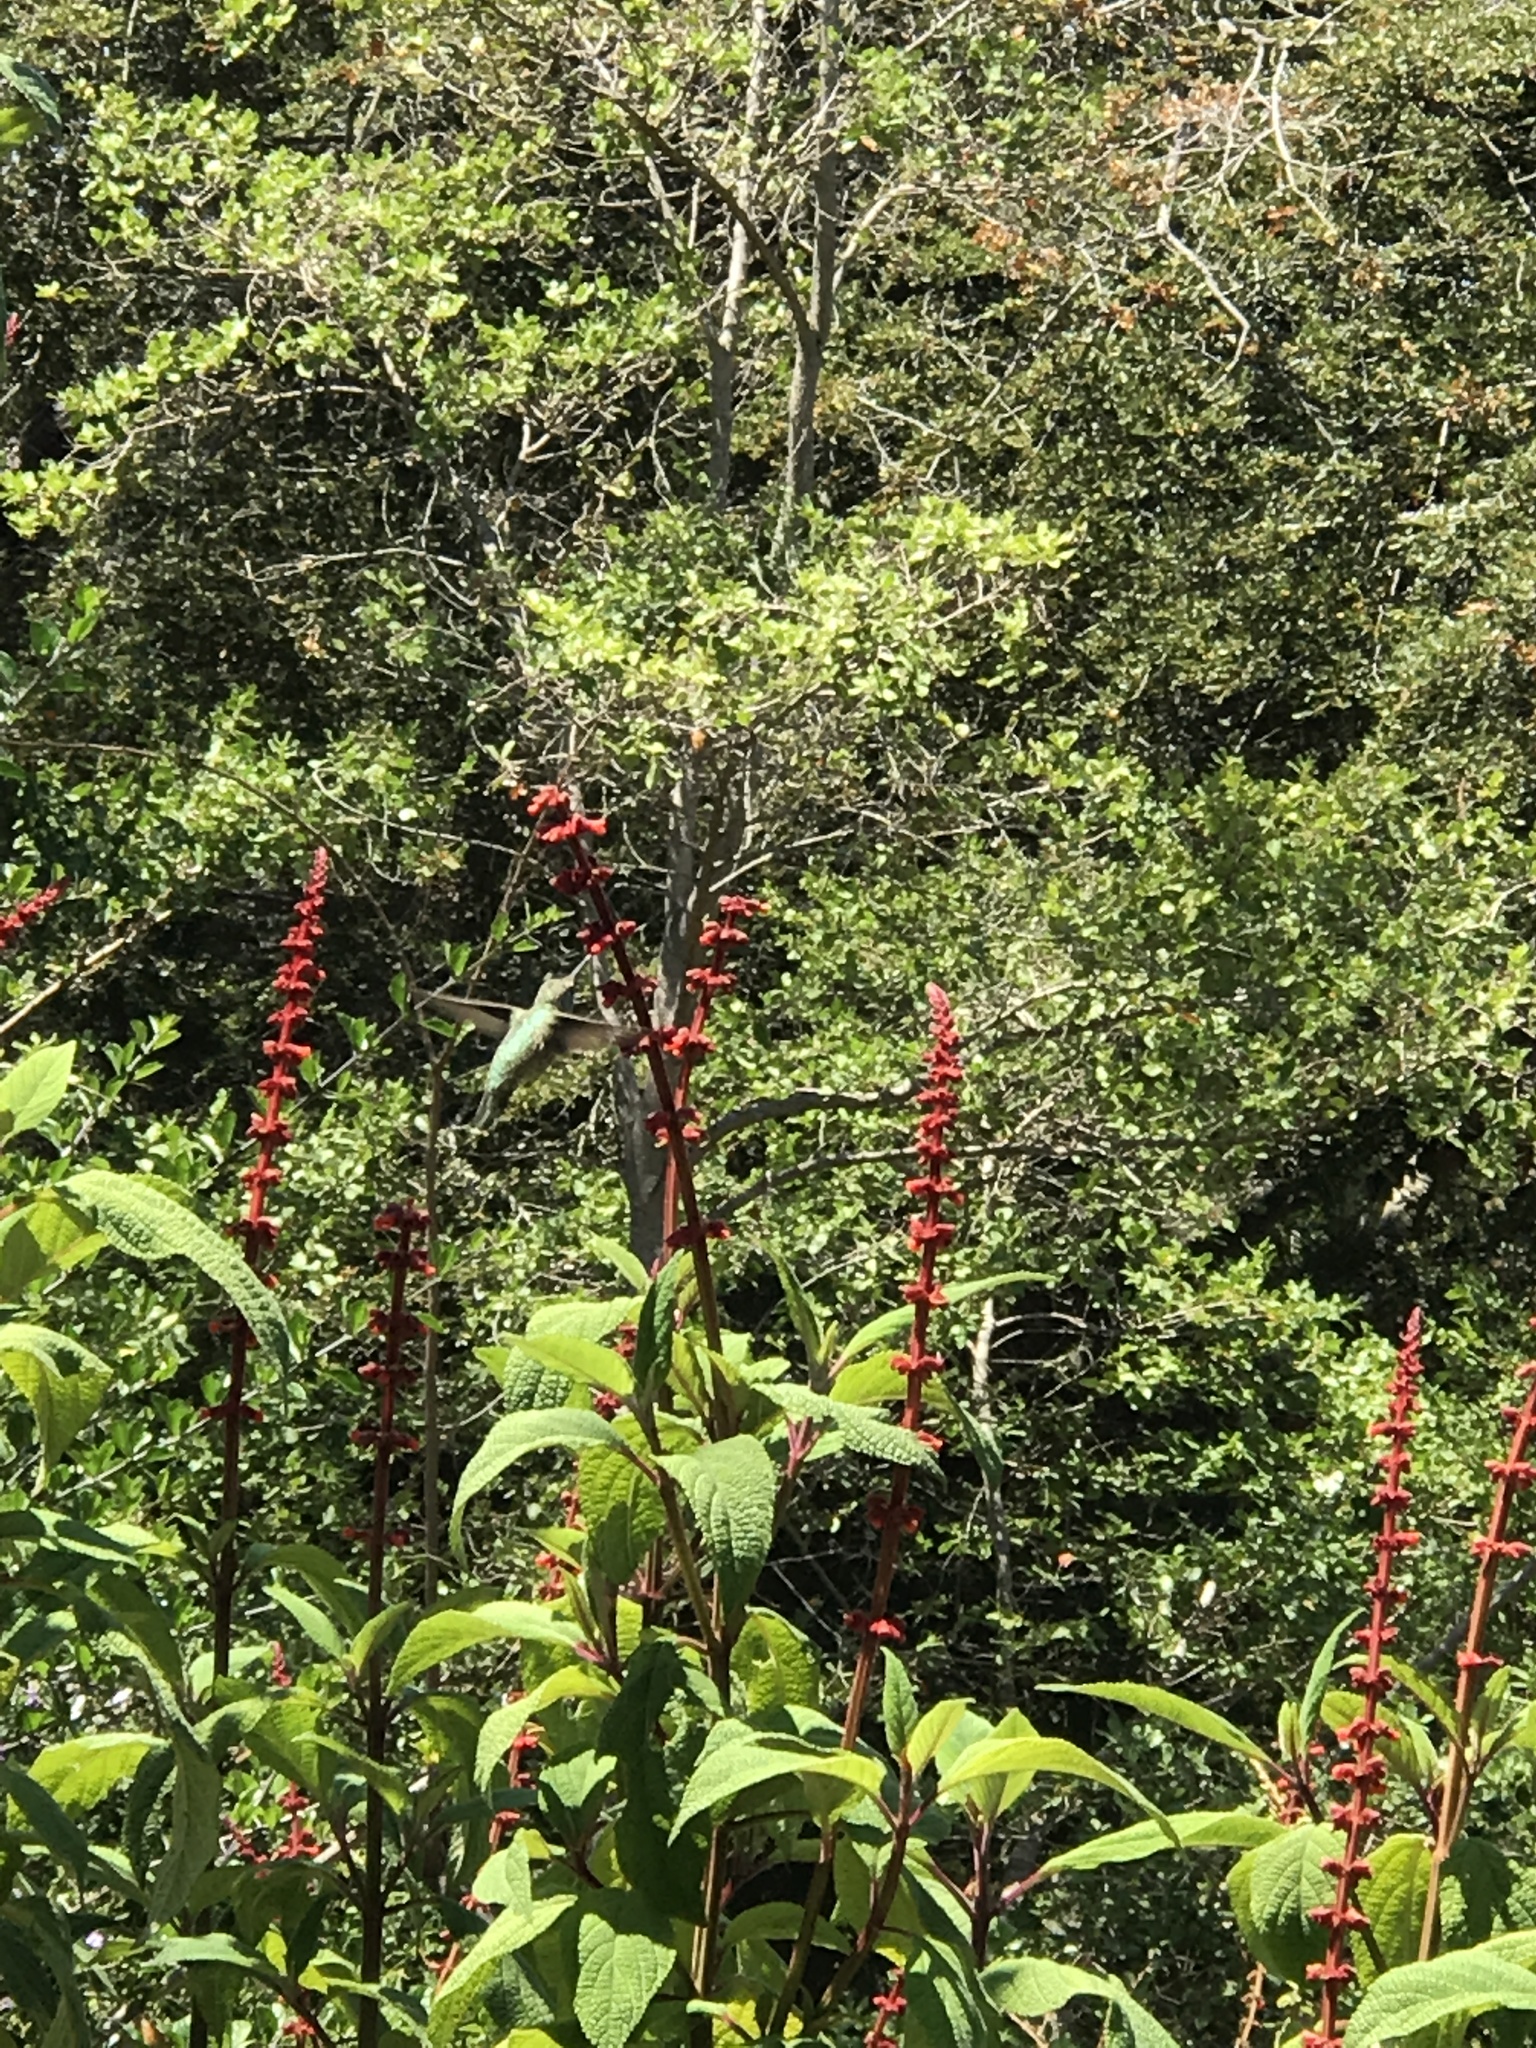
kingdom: Animalia
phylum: Chordata
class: Aves
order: Apodiformes
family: Trochilidae
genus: Calypte
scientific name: Calypte anna
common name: Anna's hummingbird
